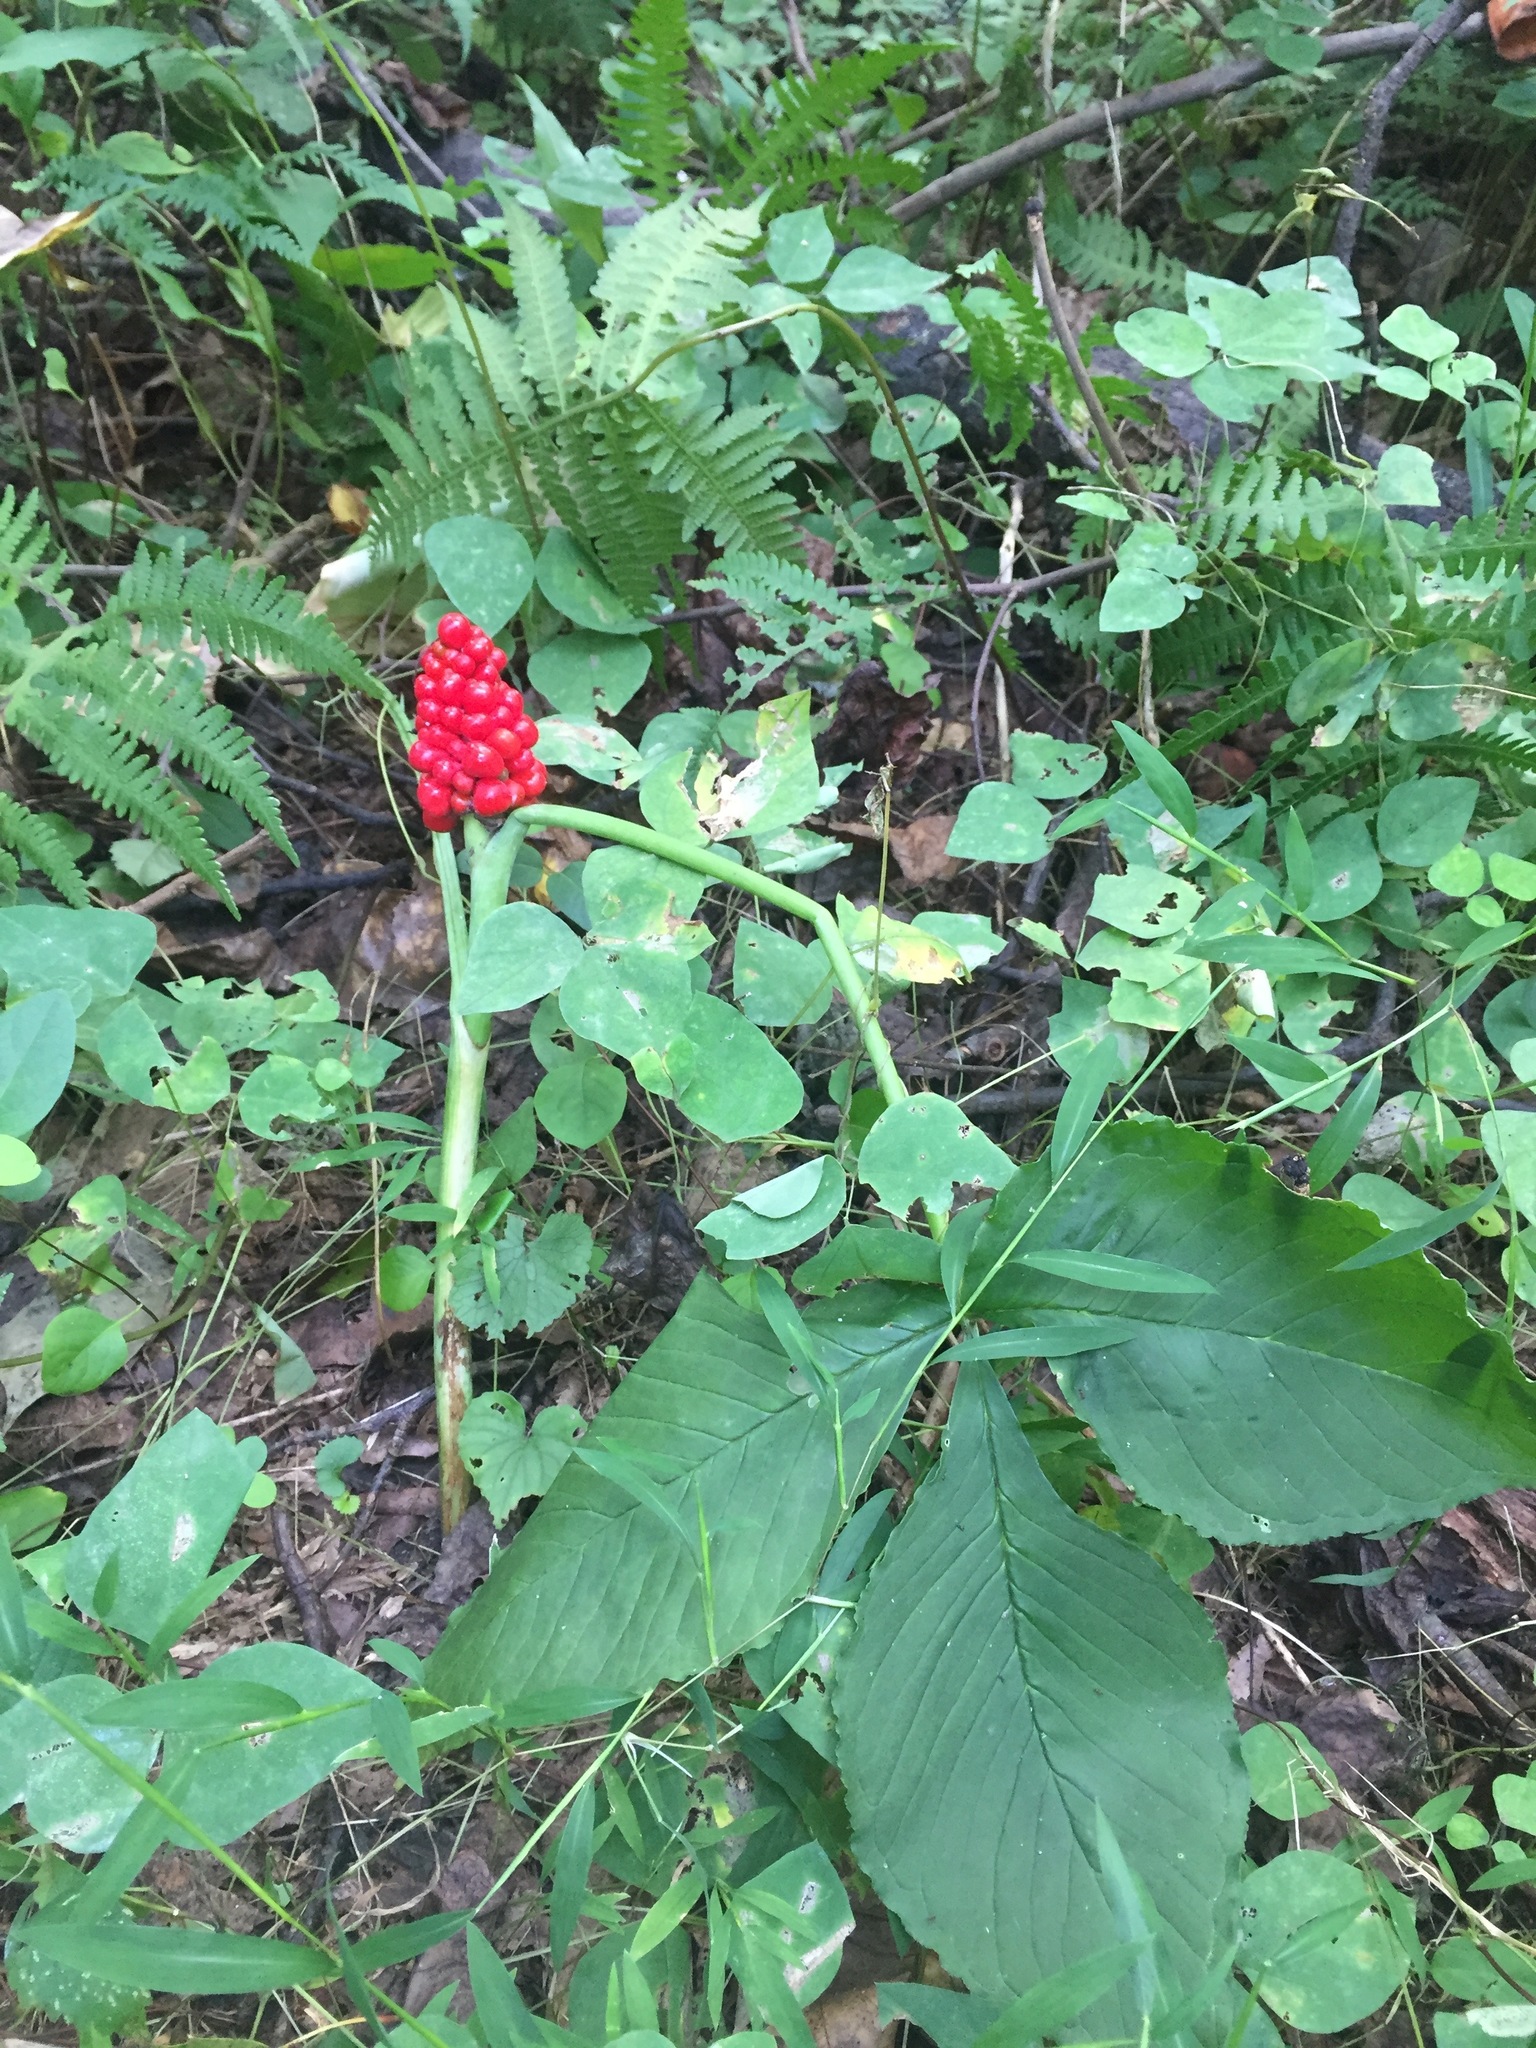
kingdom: Plantae
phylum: Tracheophyta
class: Liliopsida
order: Alismatales
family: Araceae
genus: Arisaema
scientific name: Arisaema triphyllum
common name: Jack-in-the-pulpit
